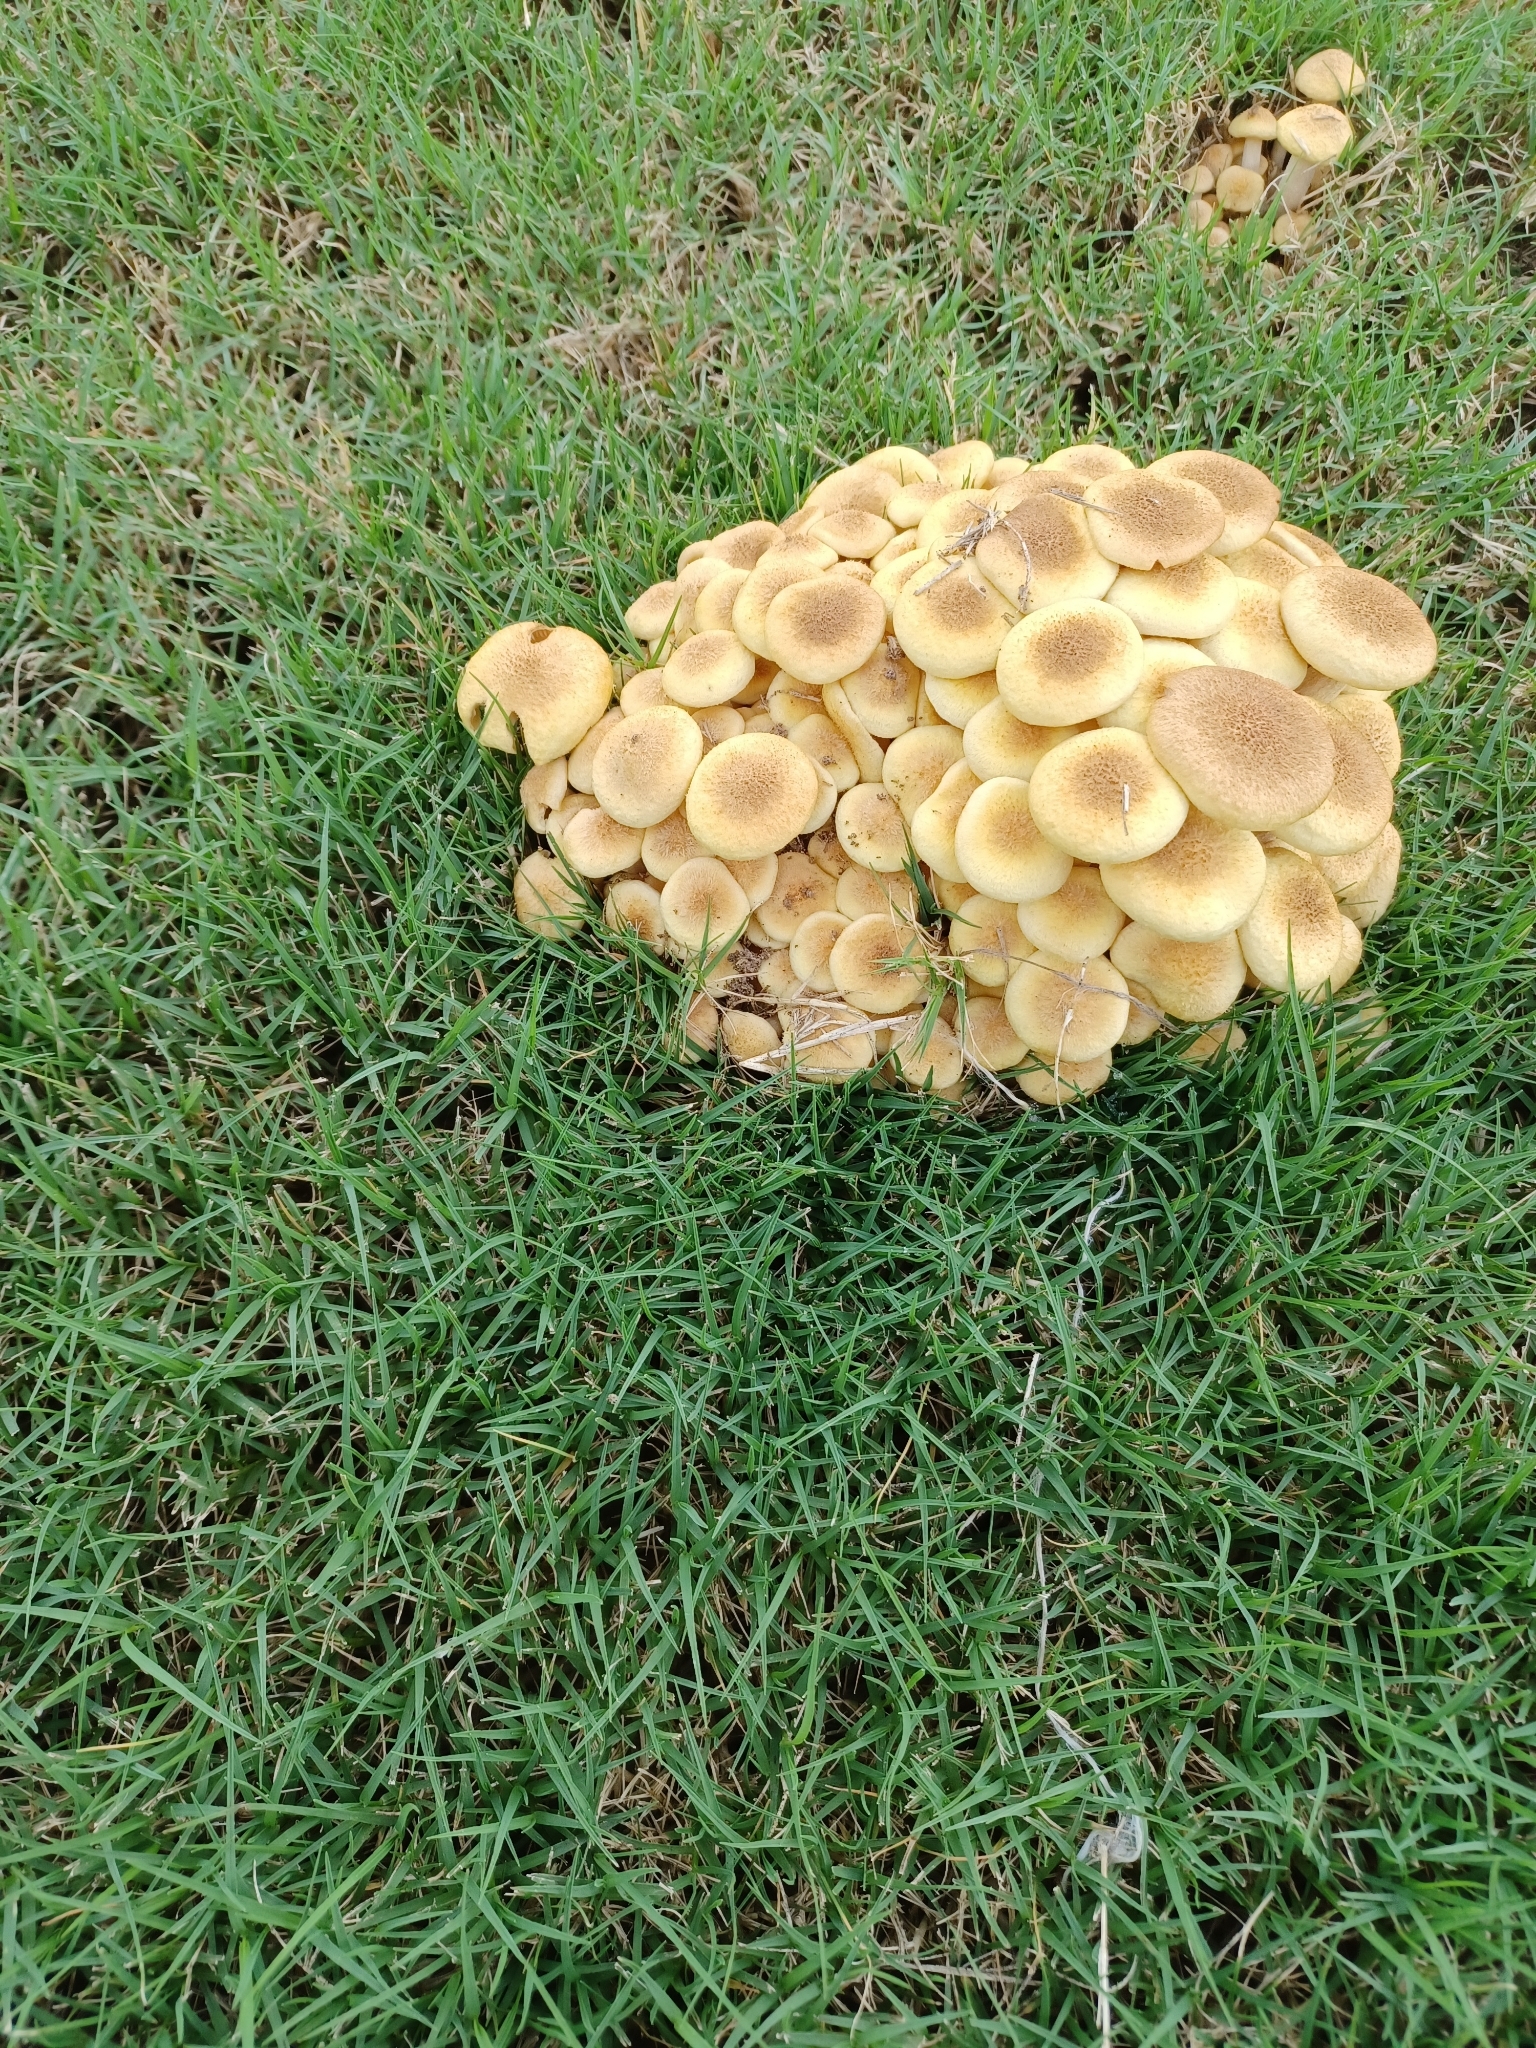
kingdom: Fungi
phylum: Basidiomycota
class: Agaricomycetes
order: Agaricales
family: Physalacriaceae
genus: Desarmillaria
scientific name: Desarmillaria caespitosa
